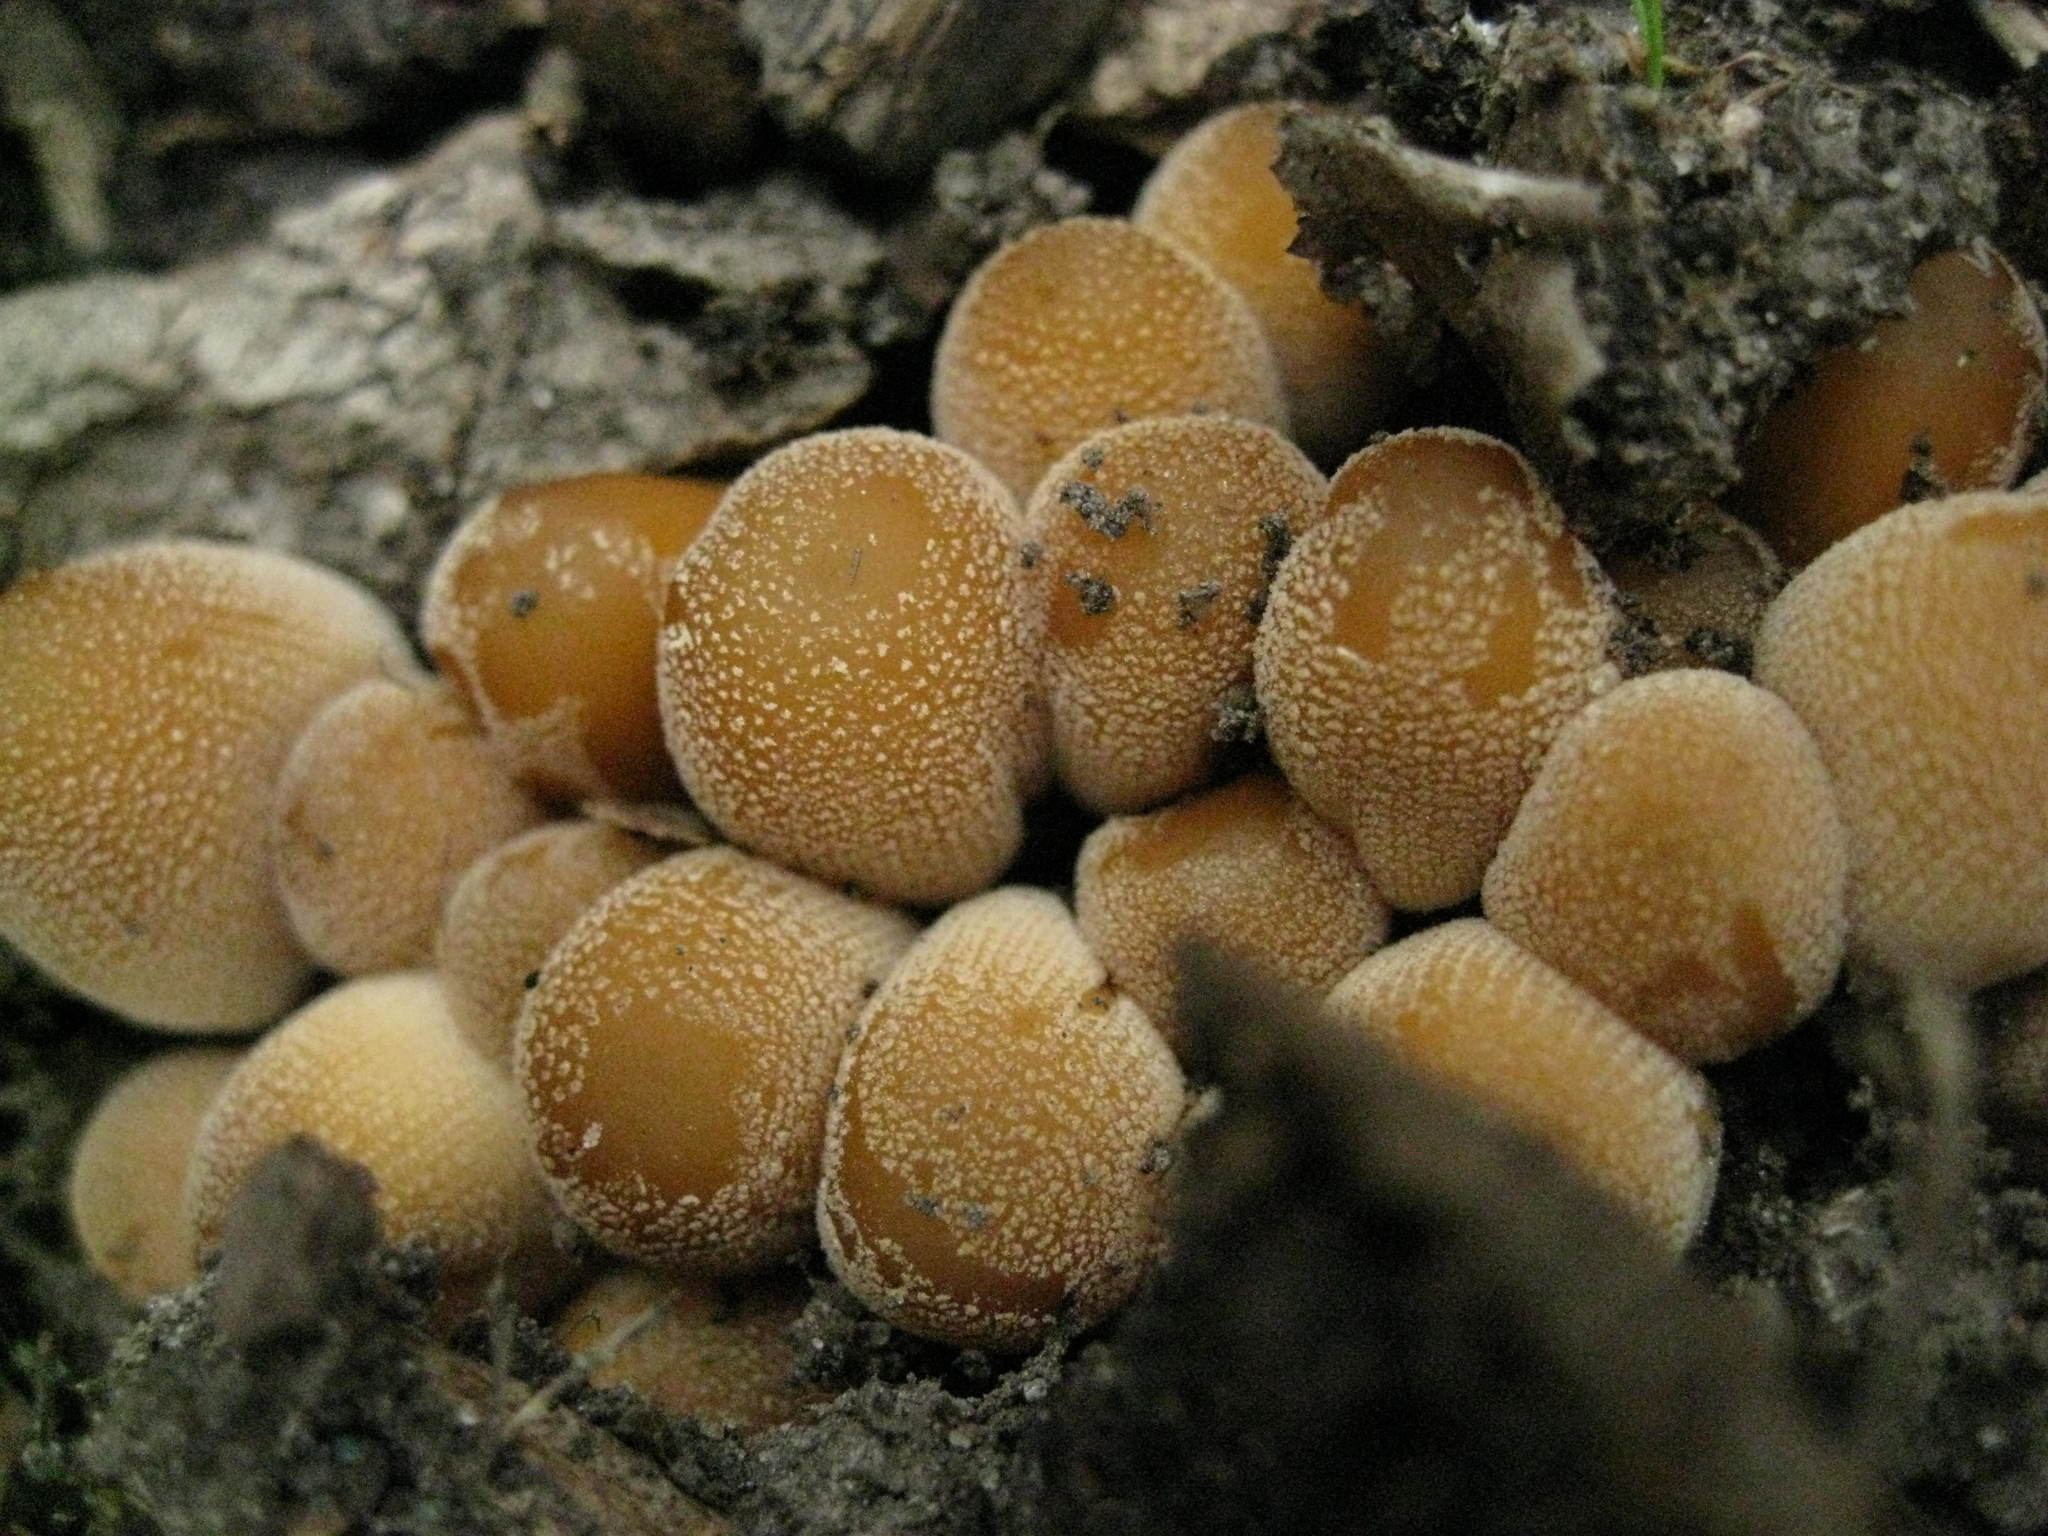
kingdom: Fungi
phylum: Basidiomycota
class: Agaricomycetes
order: Agaricales
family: Psathyrellaceae
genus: Coprinellus
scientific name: Coprinellus micaceus
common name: Glistening ink-cap
